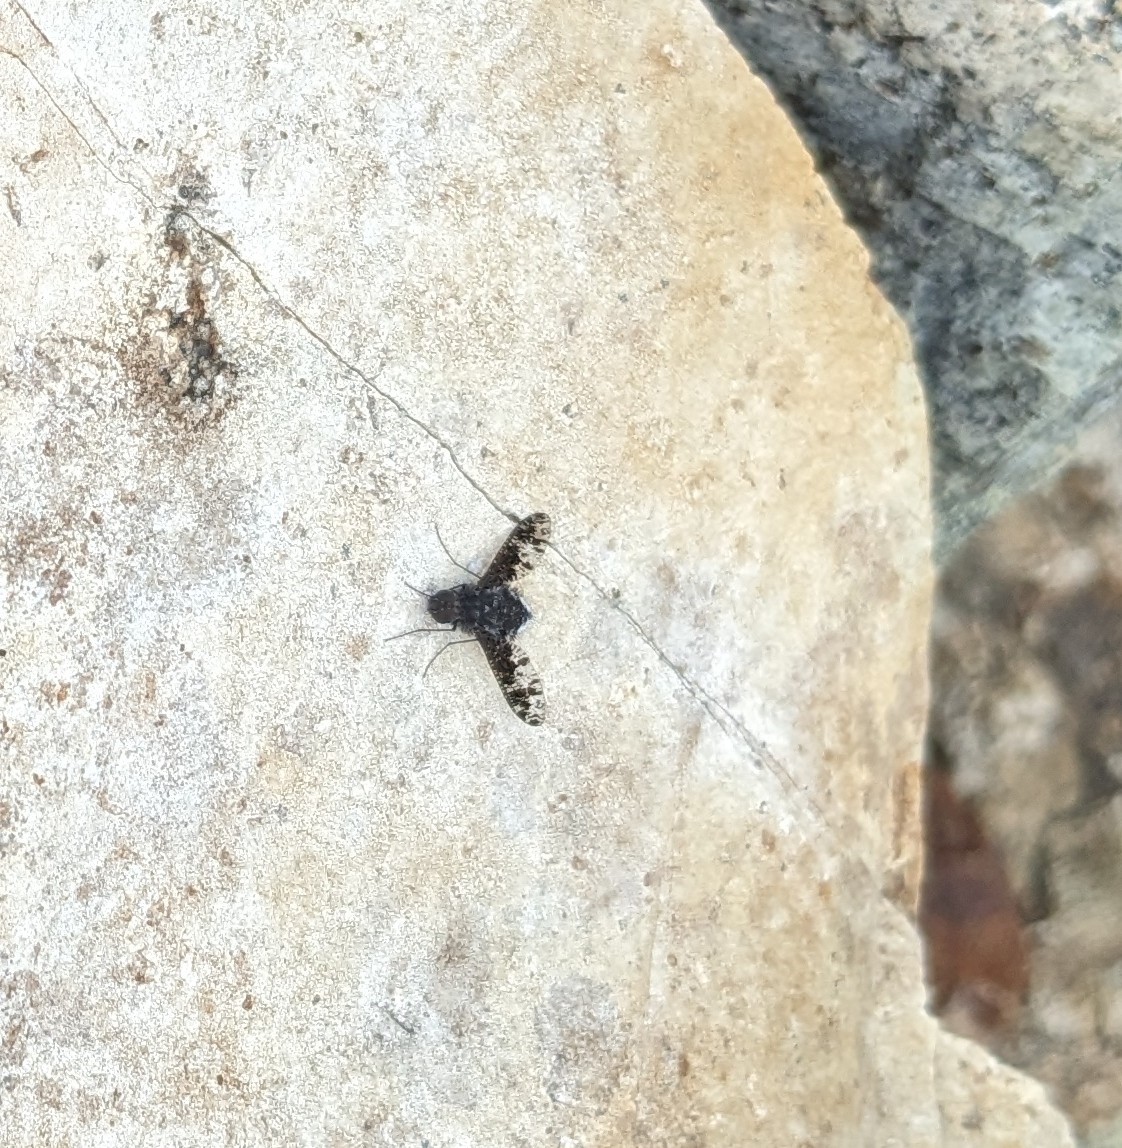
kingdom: Animalia
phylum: Arthropoda
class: Insecta
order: Diptera
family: Bombyliidae
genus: Anthrax
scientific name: Anthrax irroratus
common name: Spotted bee fly
